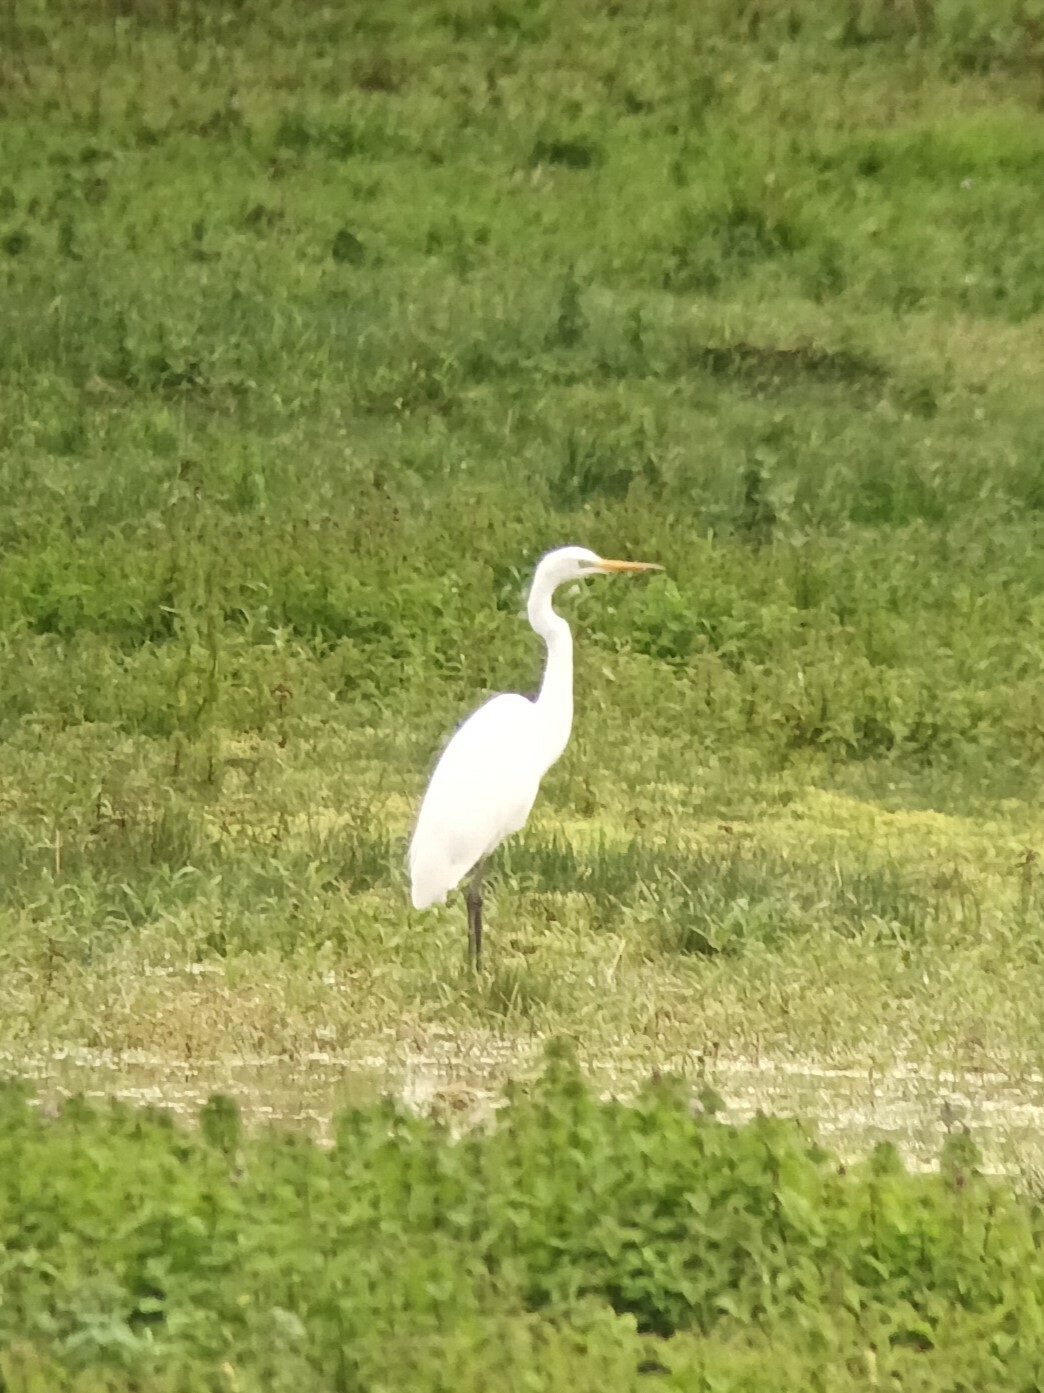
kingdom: Animalia
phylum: Chordata
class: Aves
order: Pelecaniformes
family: Ardeidae
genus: Ardea
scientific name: Ardea alba
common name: Great egret
